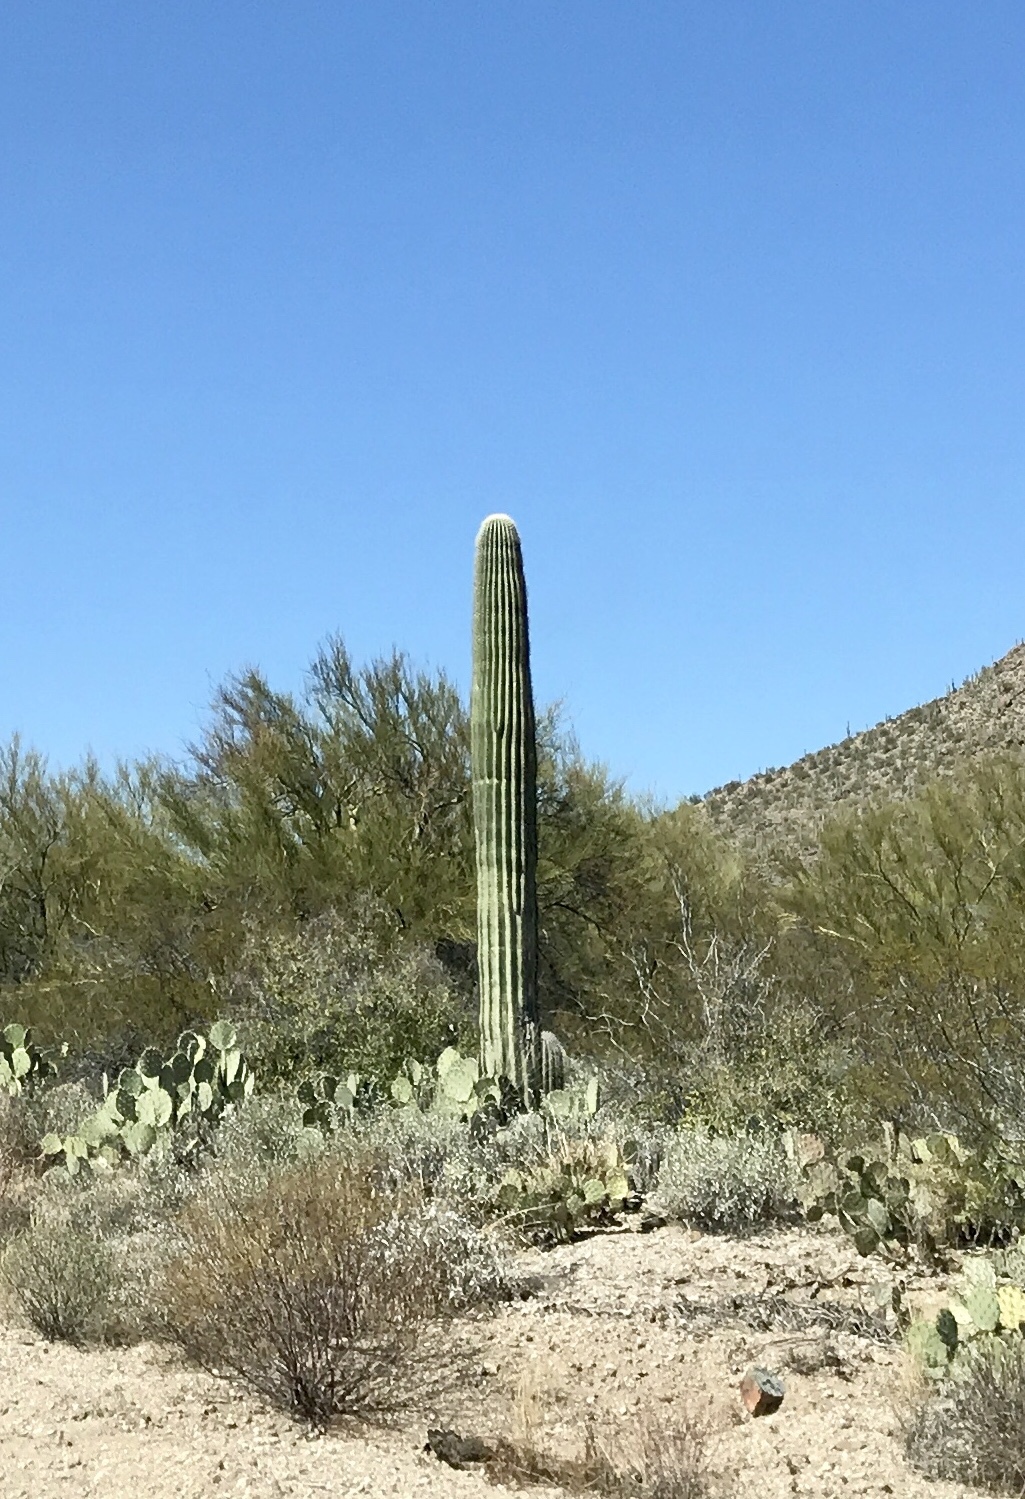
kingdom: Plantae
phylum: Tracheophyta
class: Magnoliopsida
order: Caryophyllales
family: Cactaceae
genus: Carnegiea
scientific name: Carnegiea gigantea
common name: Saguaro
